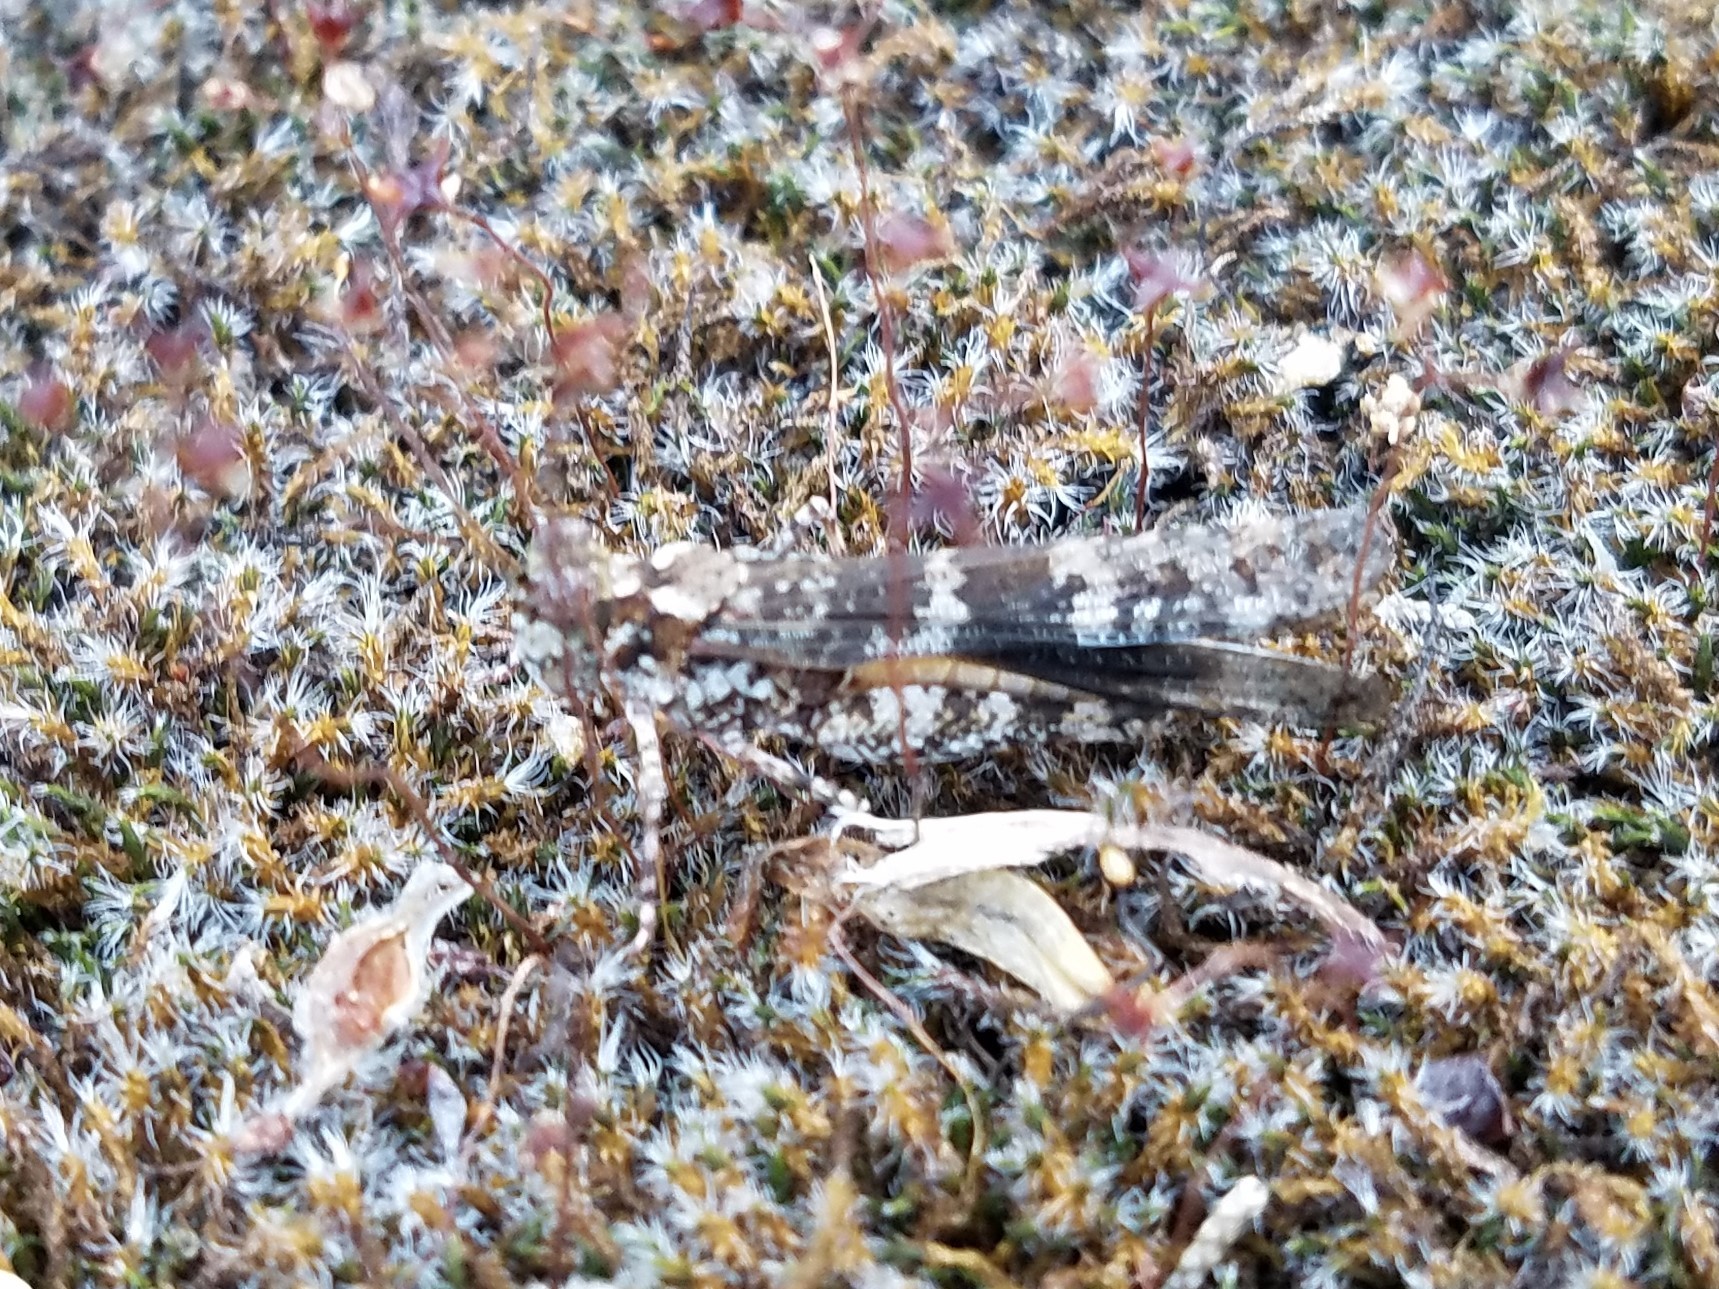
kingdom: Animalia
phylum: Arthropoda
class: Insecta
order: Orthoptera
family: Acrididae
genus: Trimerotropis
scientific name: Trimerotropis saxatilis
